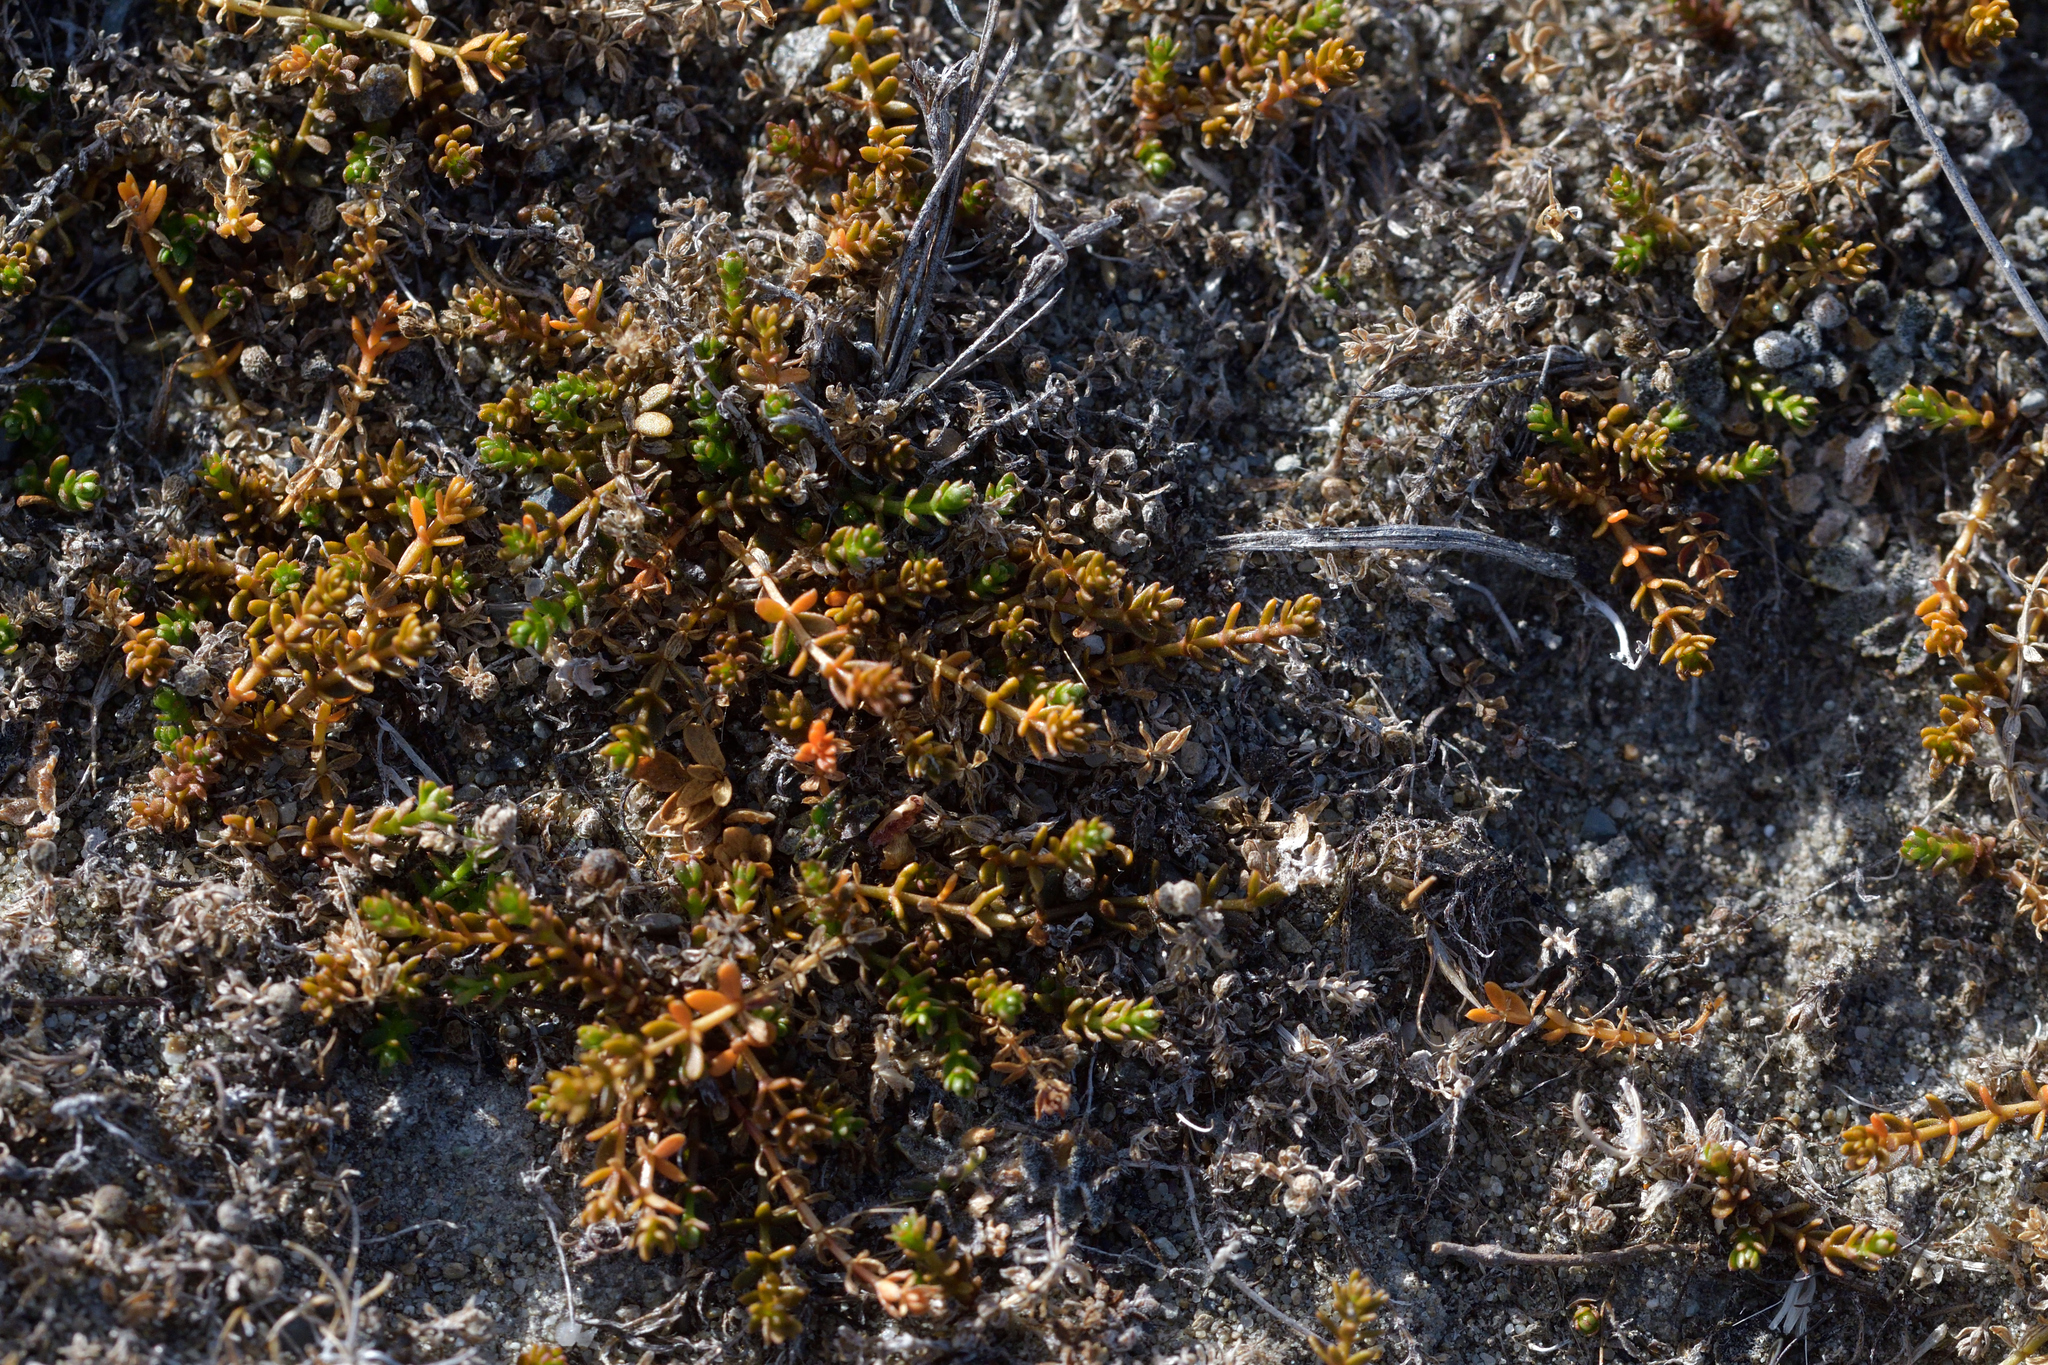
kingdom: Plantae
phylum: Tracheophyta
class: Magnoliopsida
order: Gentianales
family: Rubiaceae
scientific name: Rubiaceae
